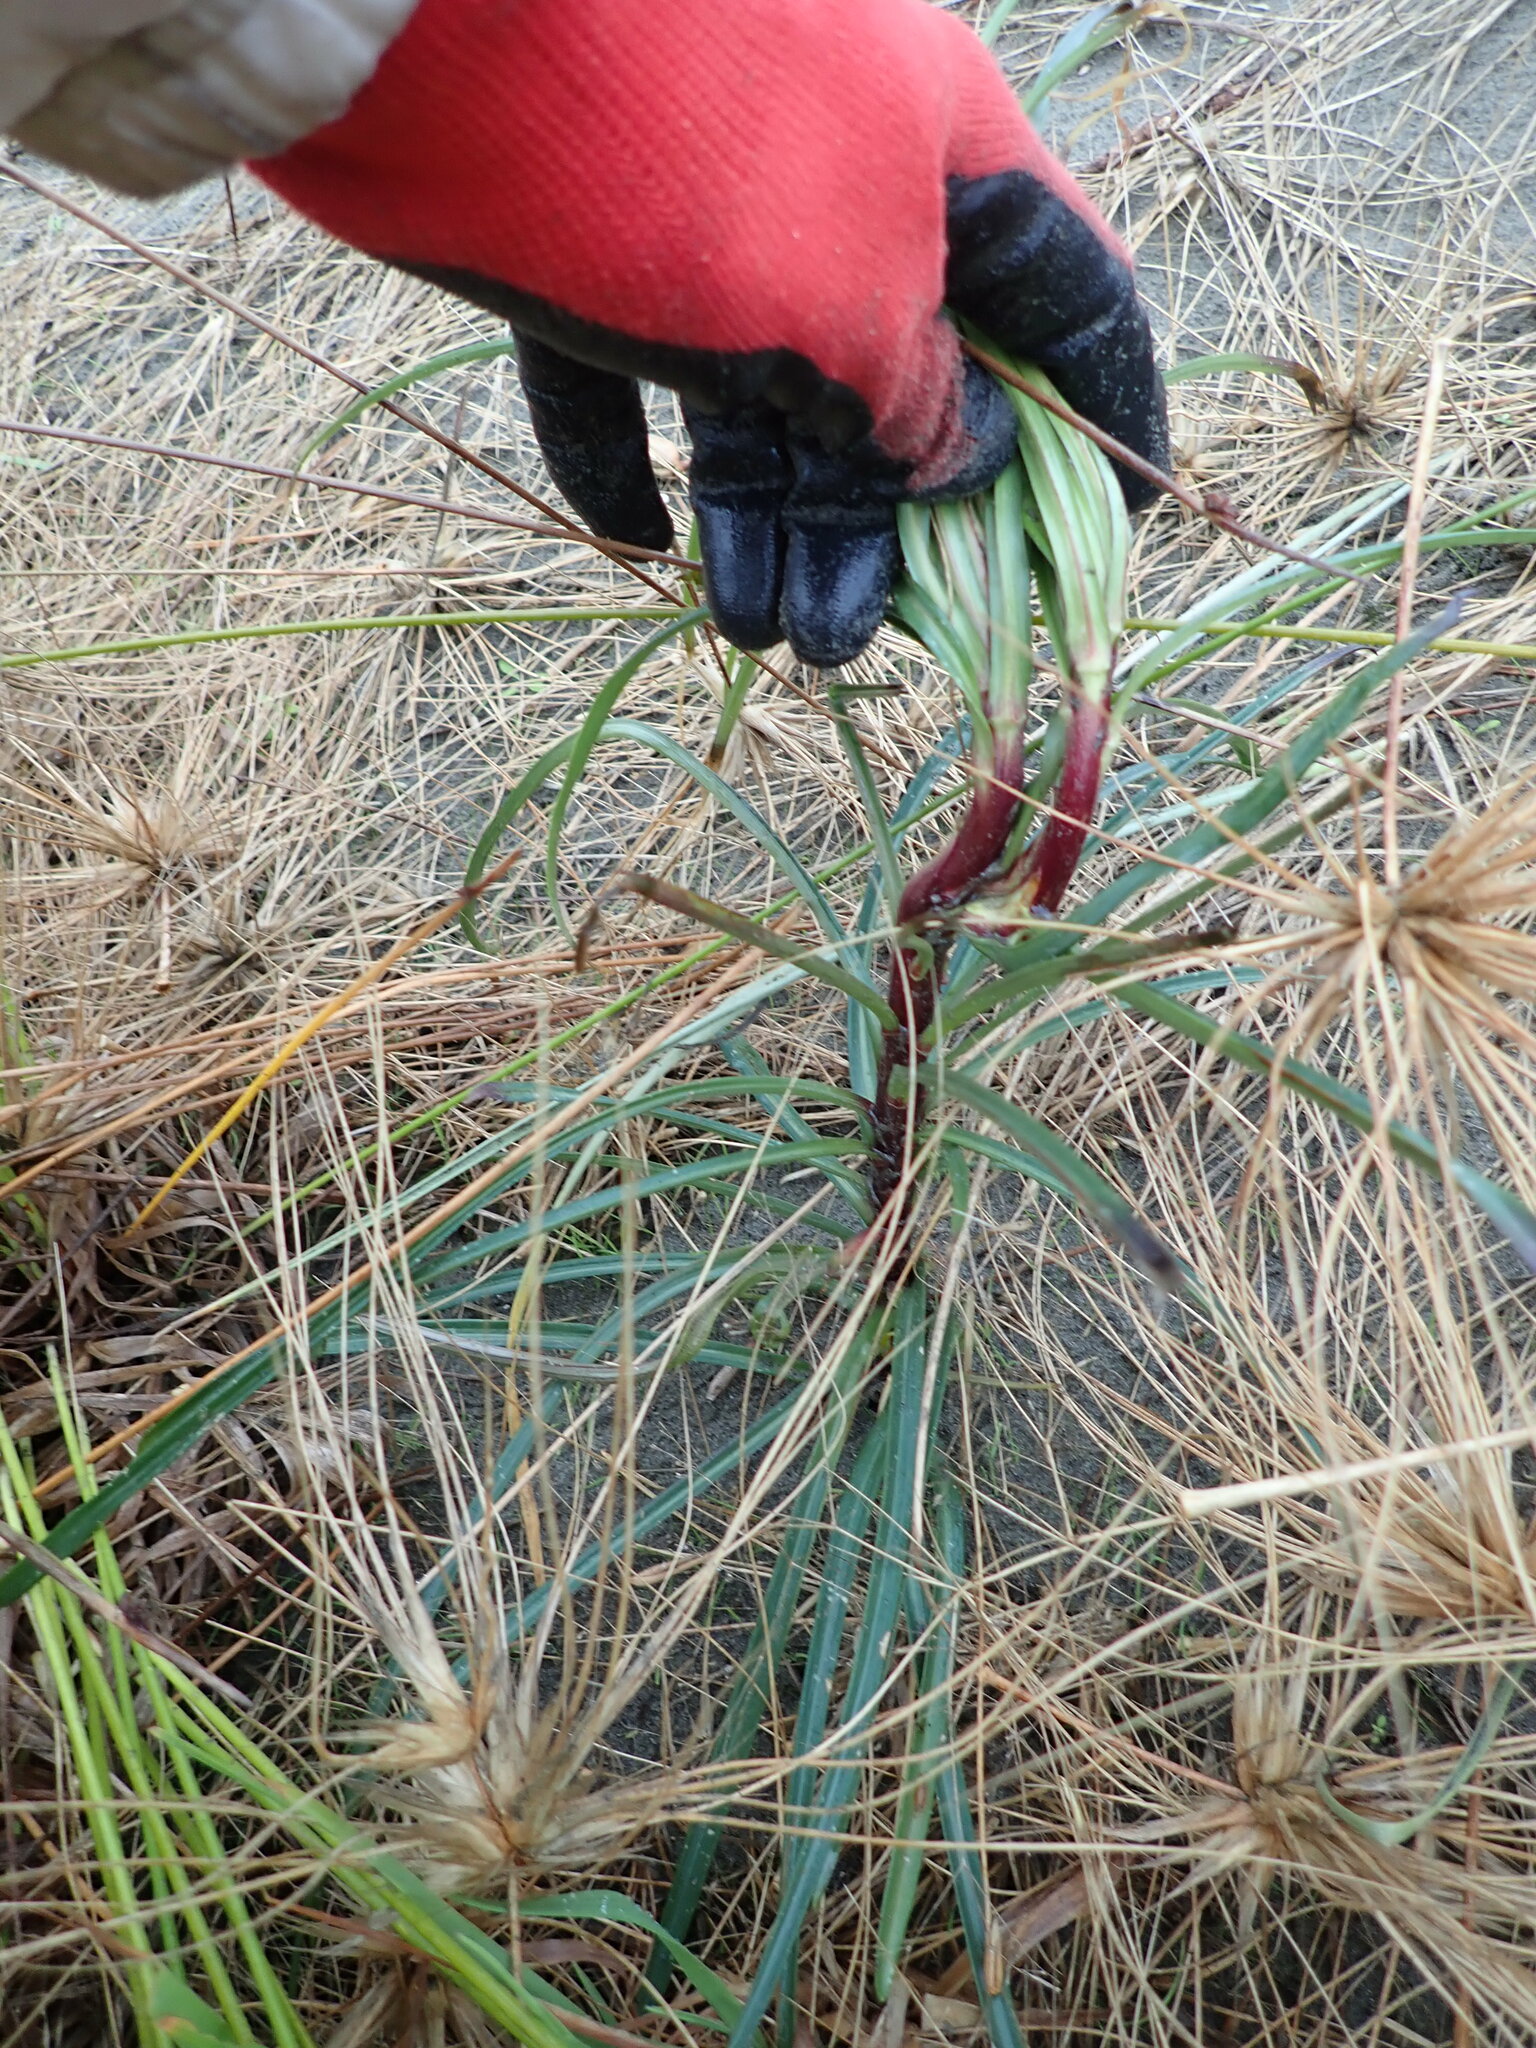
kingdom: Plantae
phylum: Tracheophyta
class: Liliopsida
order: Liliales
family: Liliaceae
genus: Lilium
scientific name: Lilium formosanum
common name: Formosa lily
